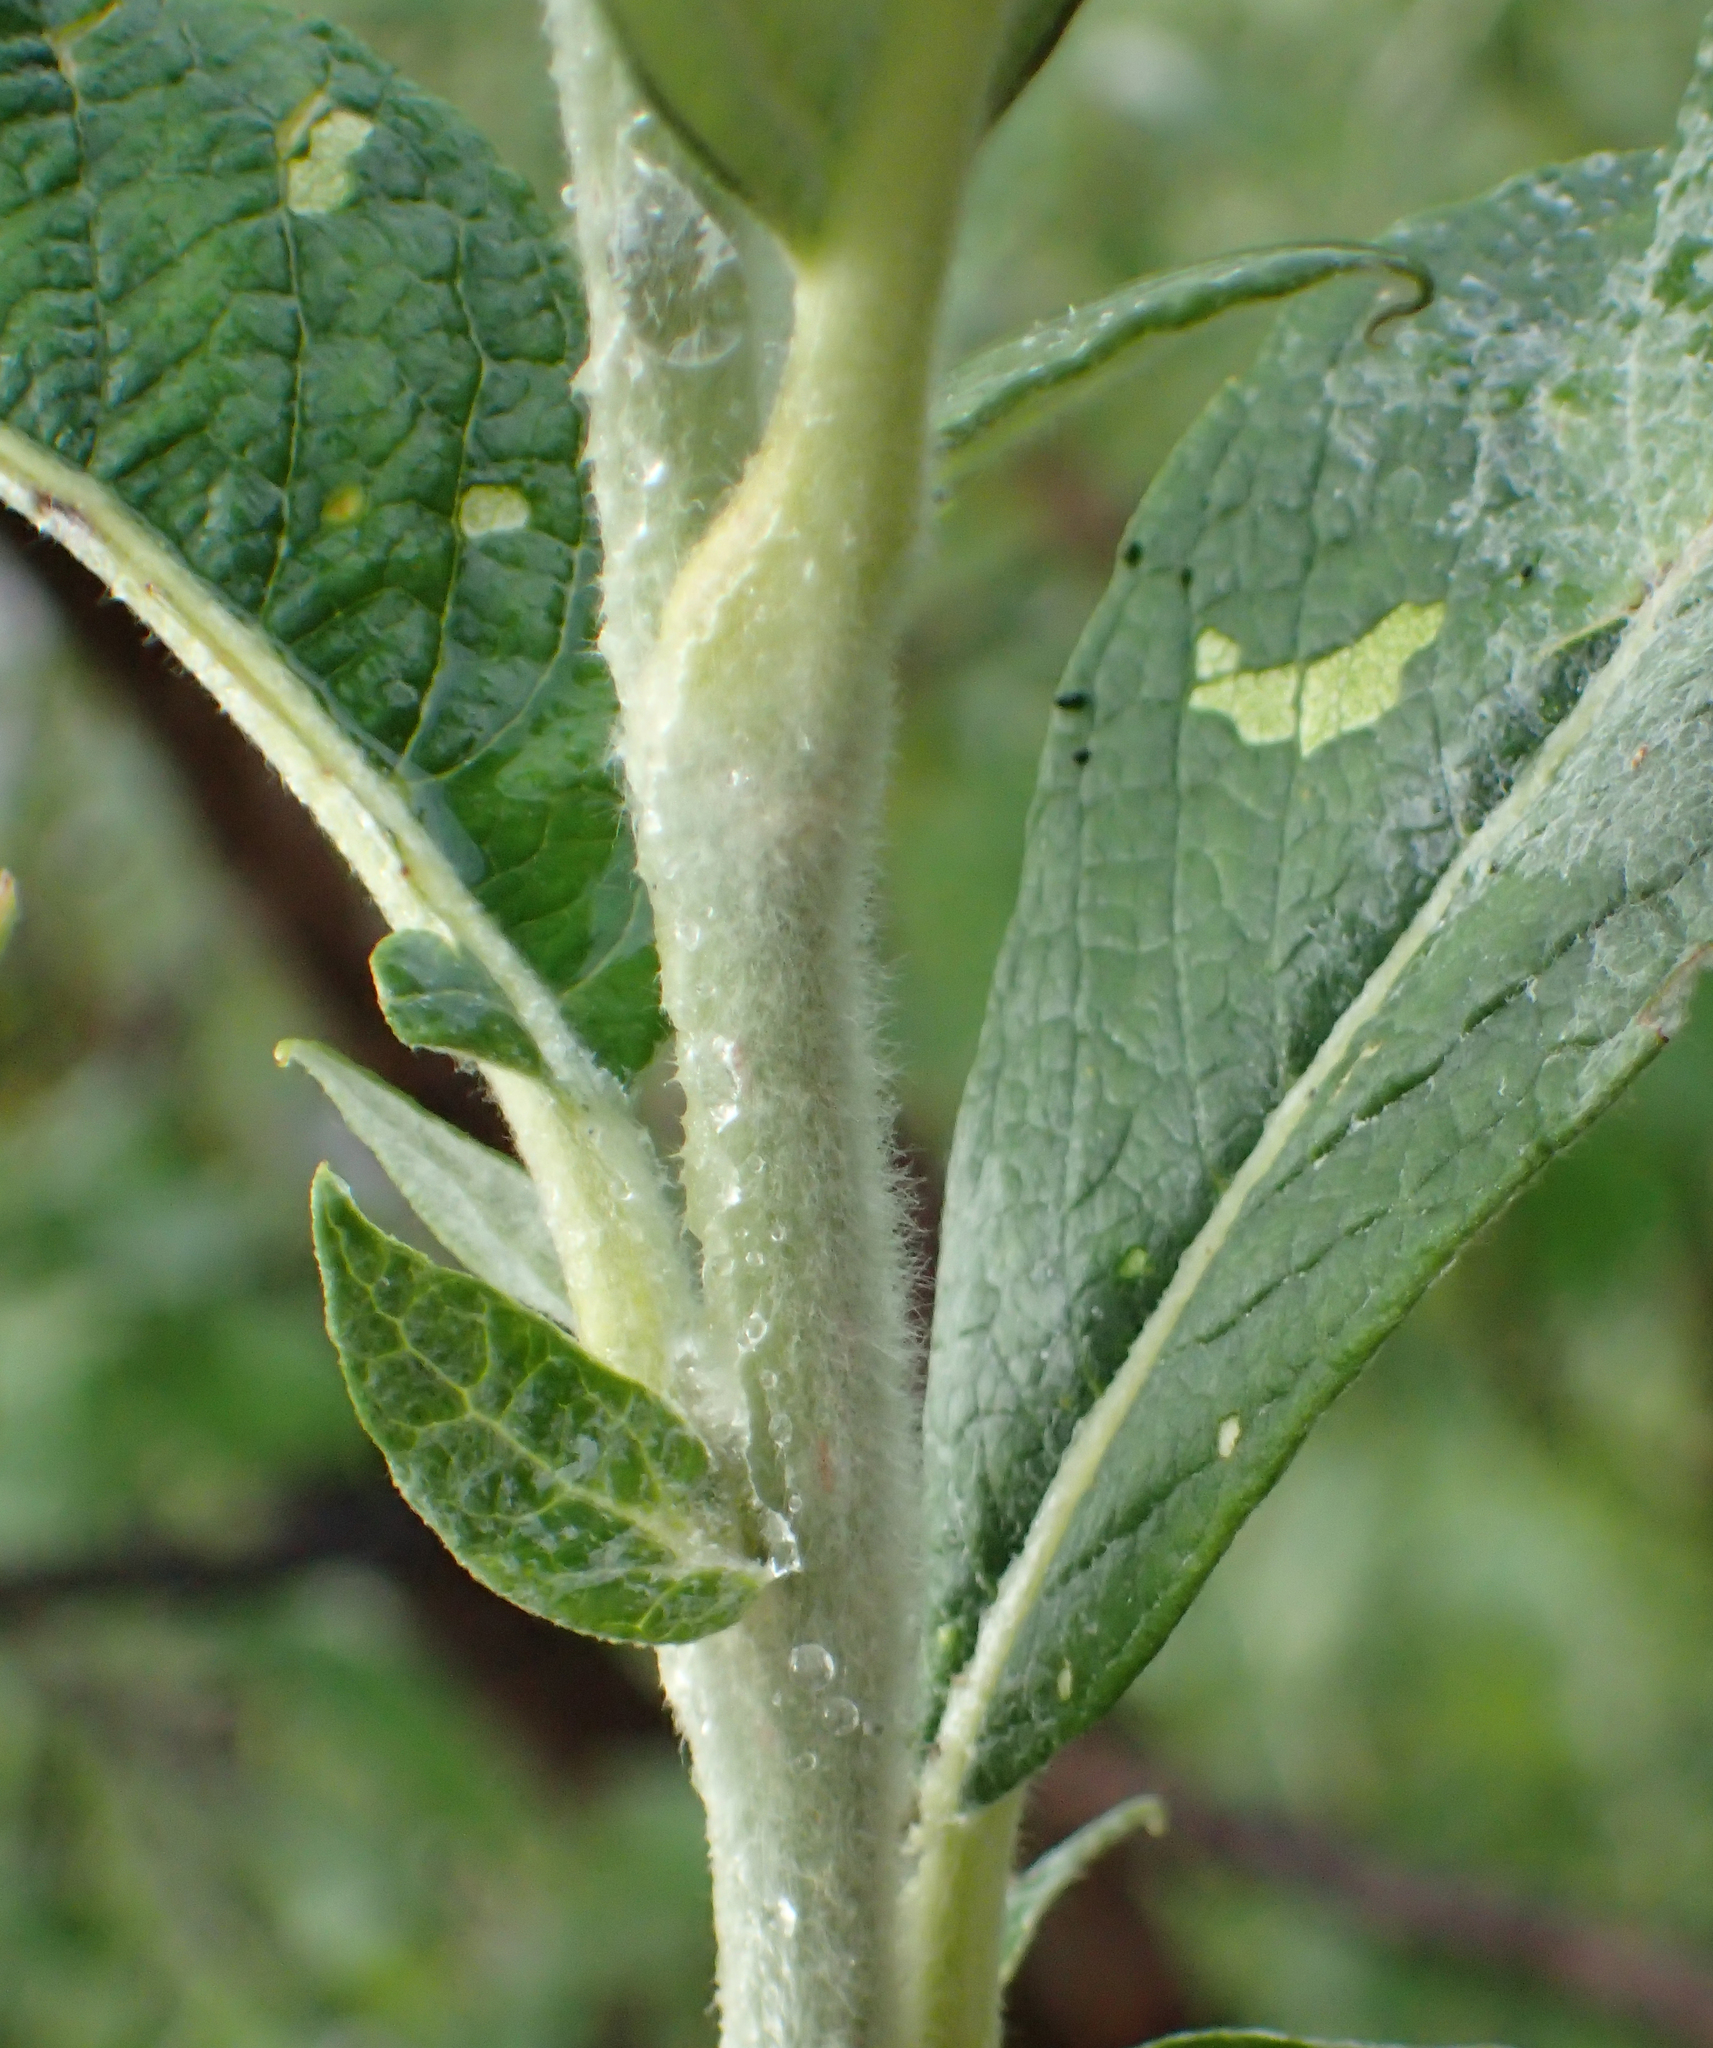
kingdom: Plantae
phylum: Tracheophyta
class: Magnoliopsida
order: Malpighiales
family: Salicaceae
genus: Salix
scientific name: Salix alaxensis
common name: Feltleaf willow
